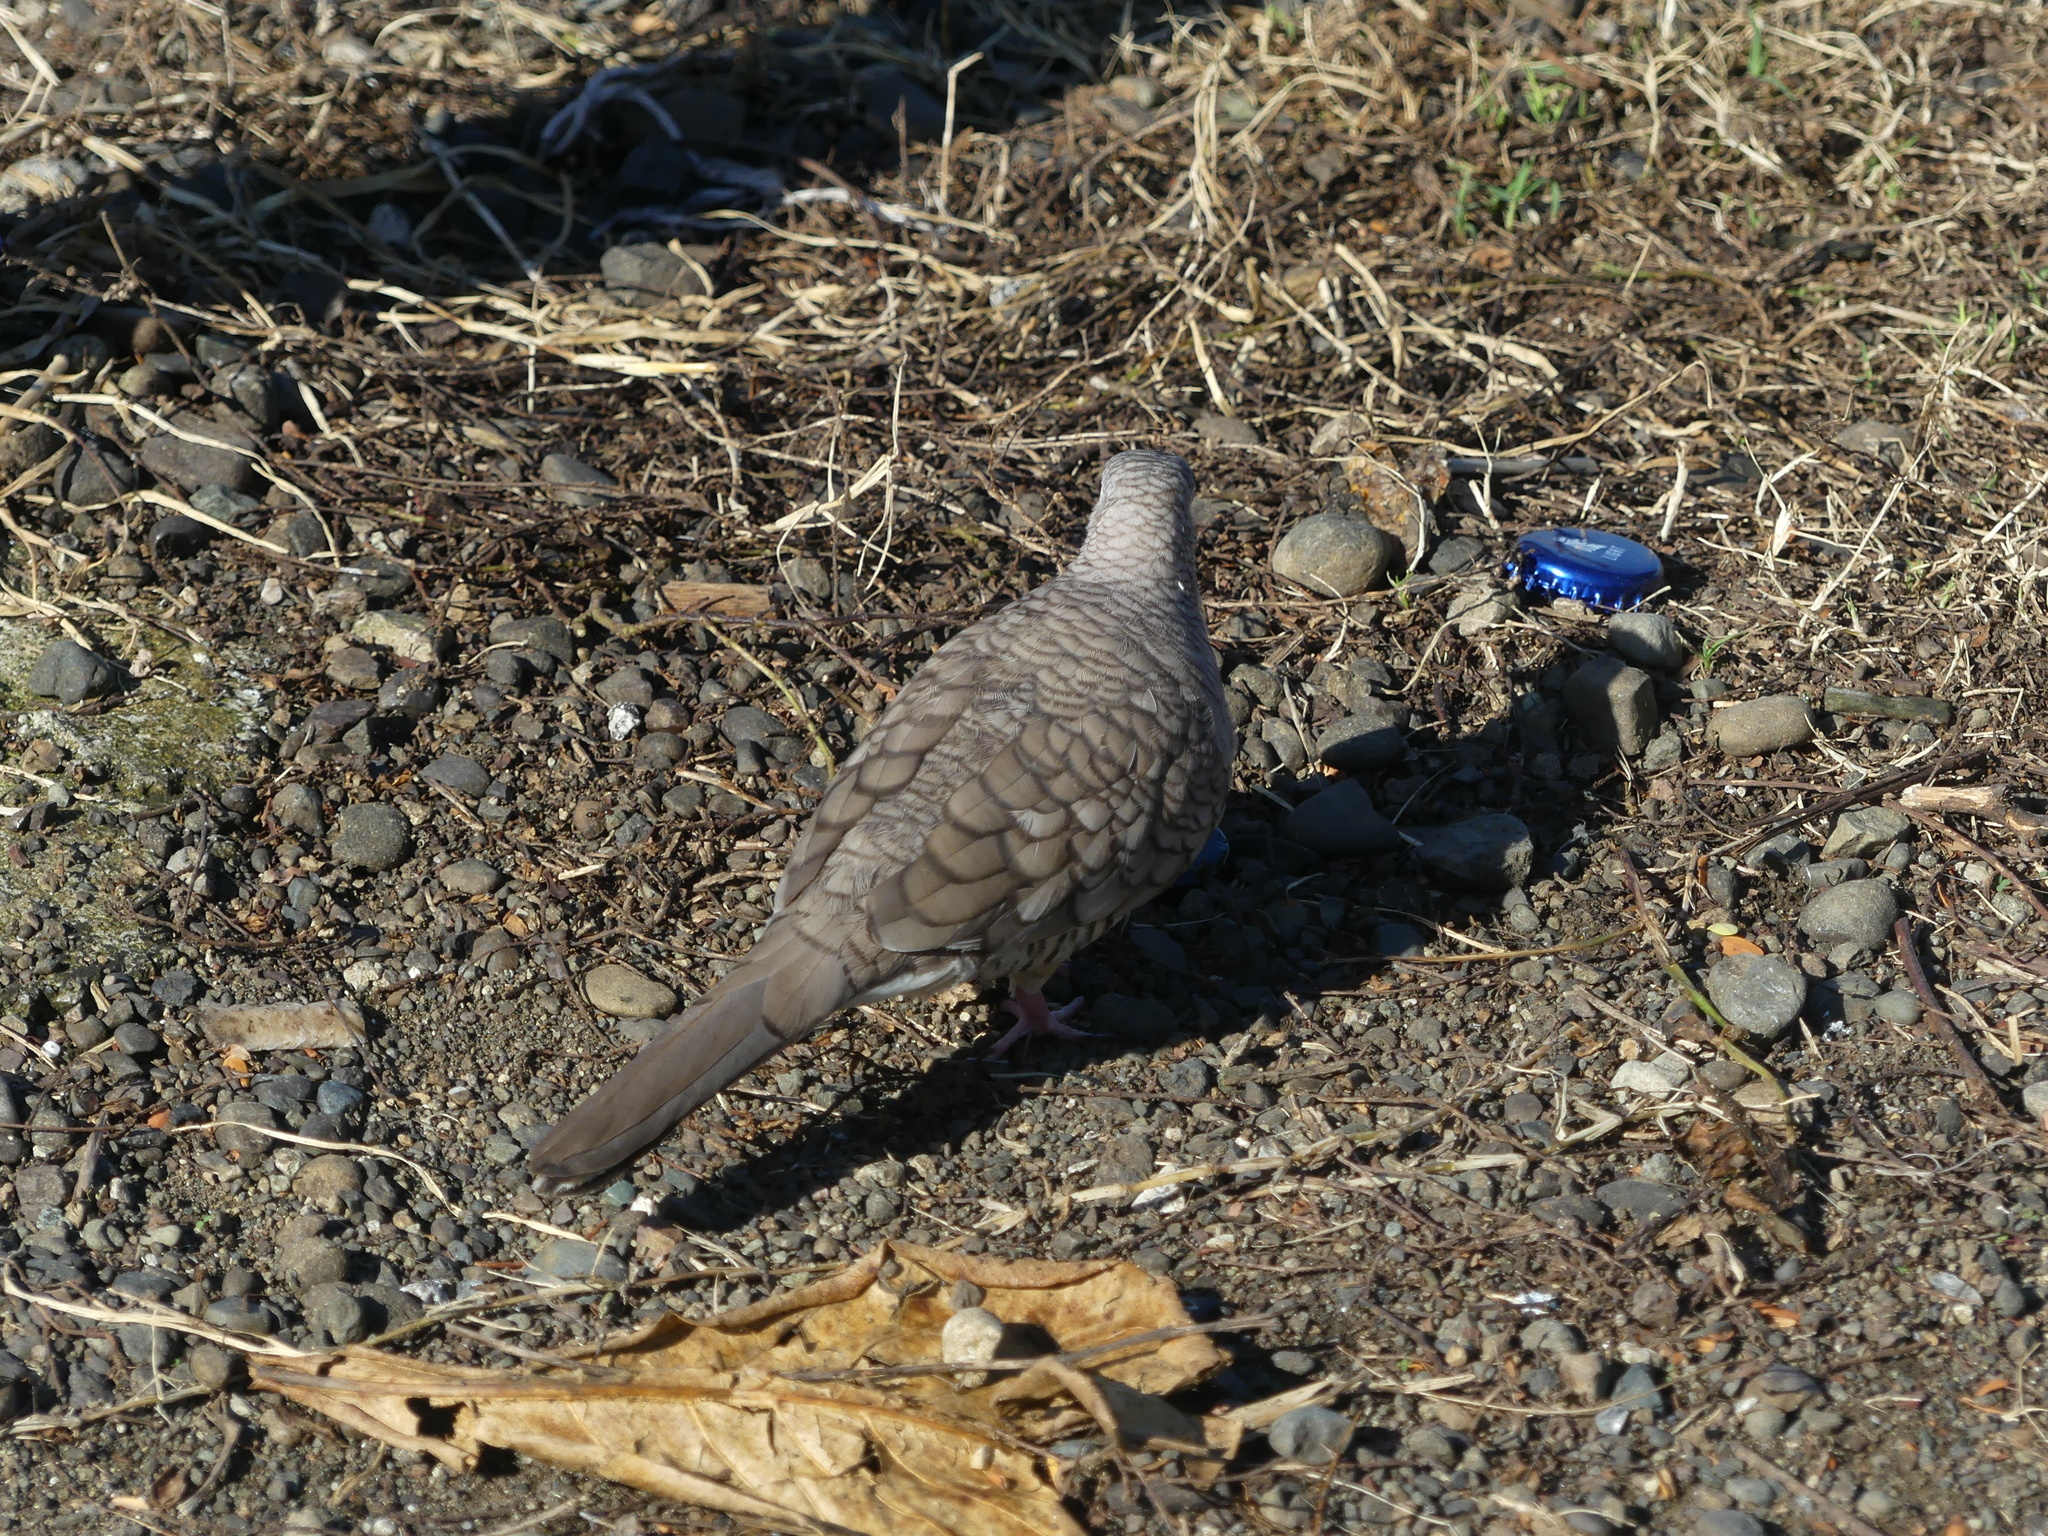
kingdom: Animalia
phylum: Chordata
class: Aves
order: Columbiformes
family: Columbidae
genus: Columbina
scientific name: Columbina inca
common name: Inca dove
